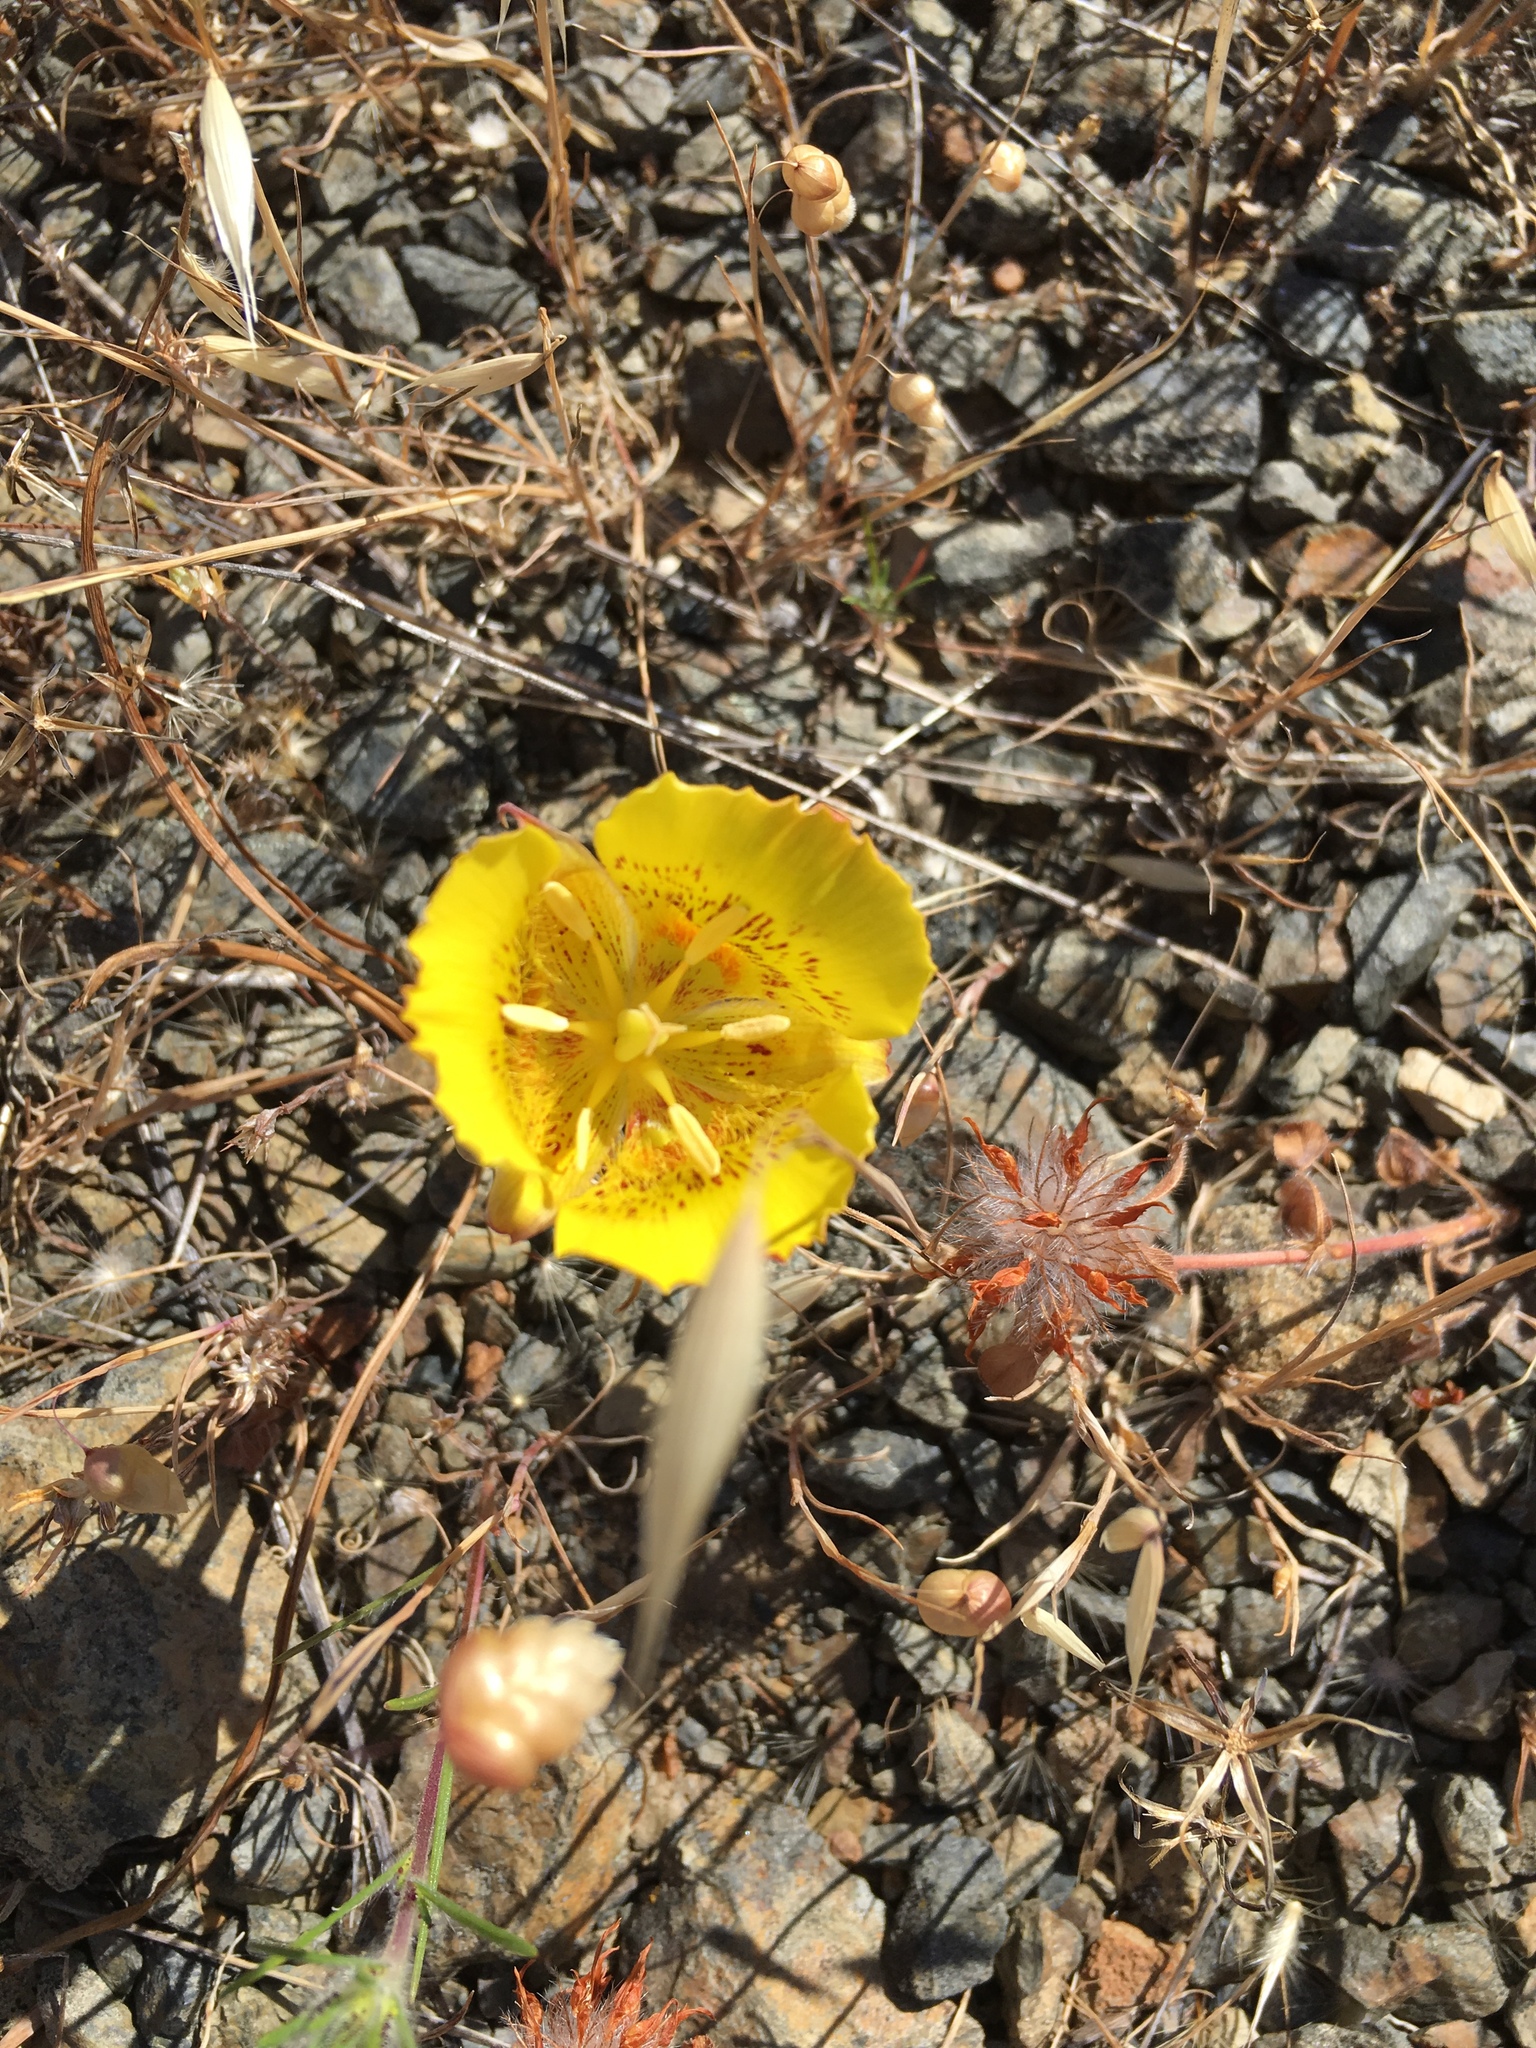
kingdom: Plantae
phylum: Tracheophyta
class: Liliopsida
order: Liliales
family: Liliaceae
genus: Calochortus
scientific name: Calochortus luteus
